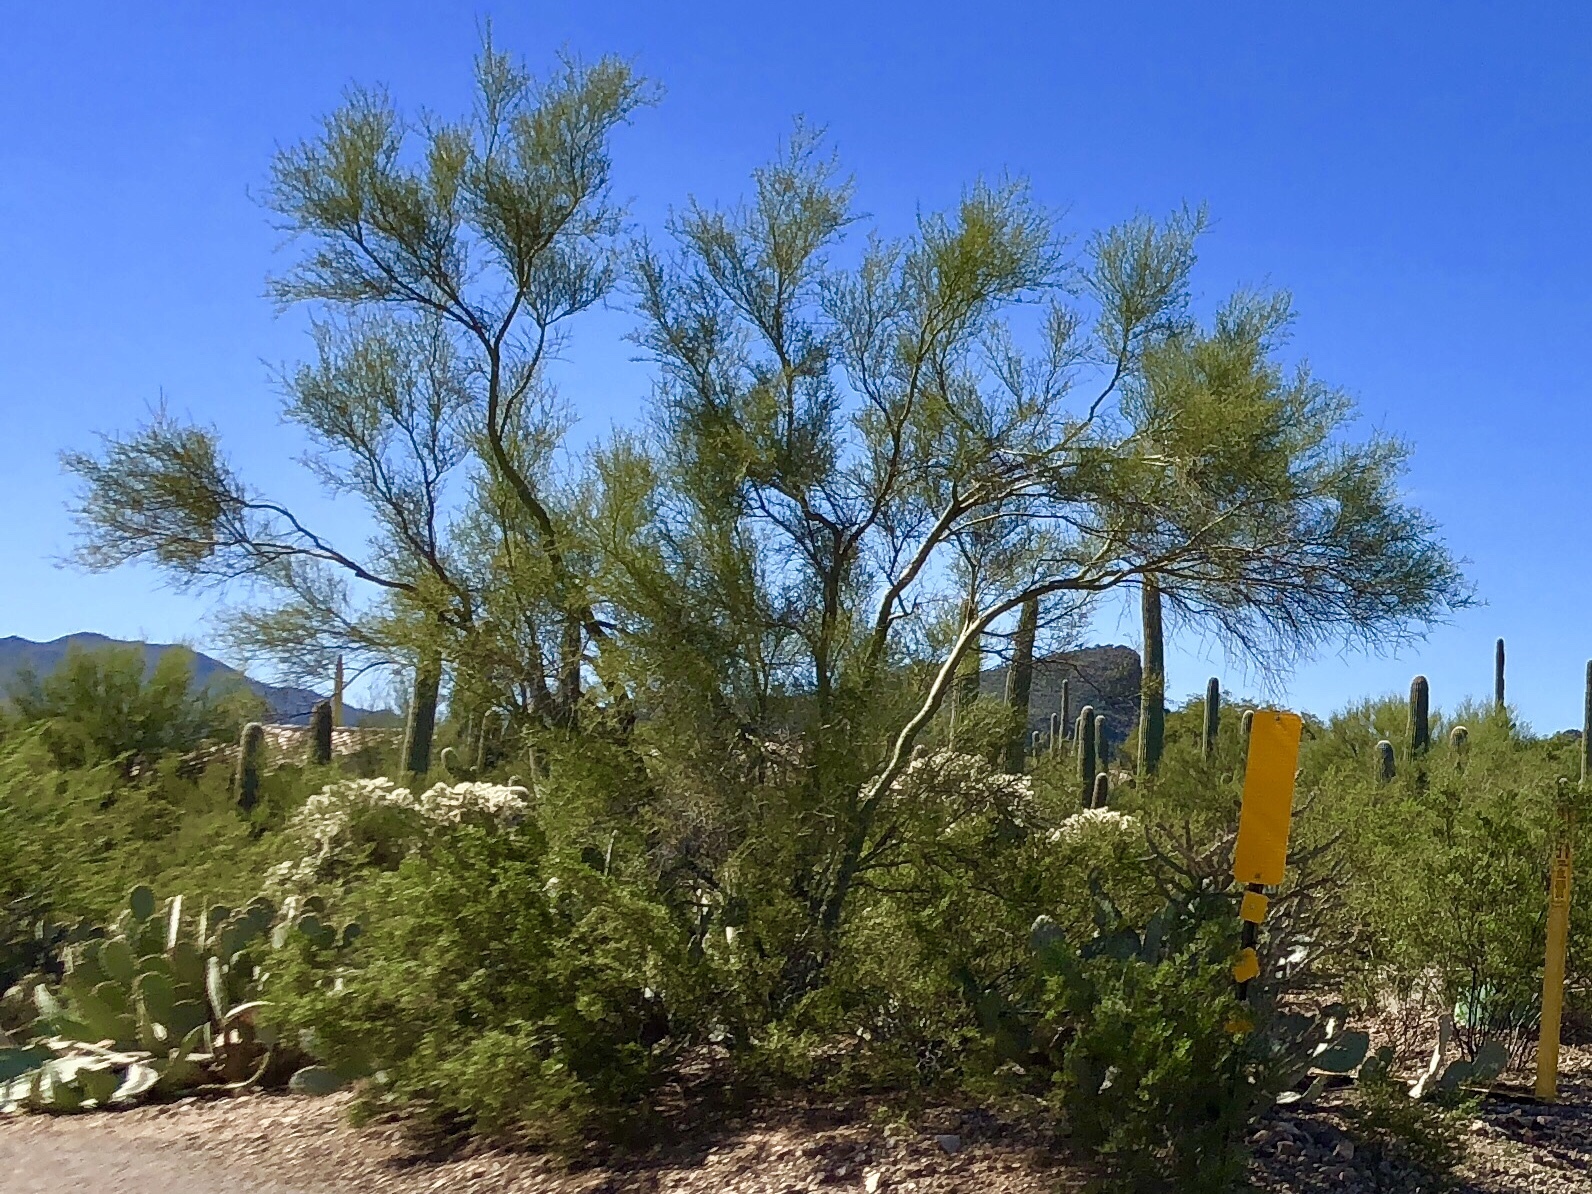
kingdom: Plantae
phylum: Tracheophyta
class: Magnoliopsida
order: Fabales
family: Fabaceae
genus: Parkinsonia
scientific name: Parkinsonia microphylla
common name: Yellow paloverde
